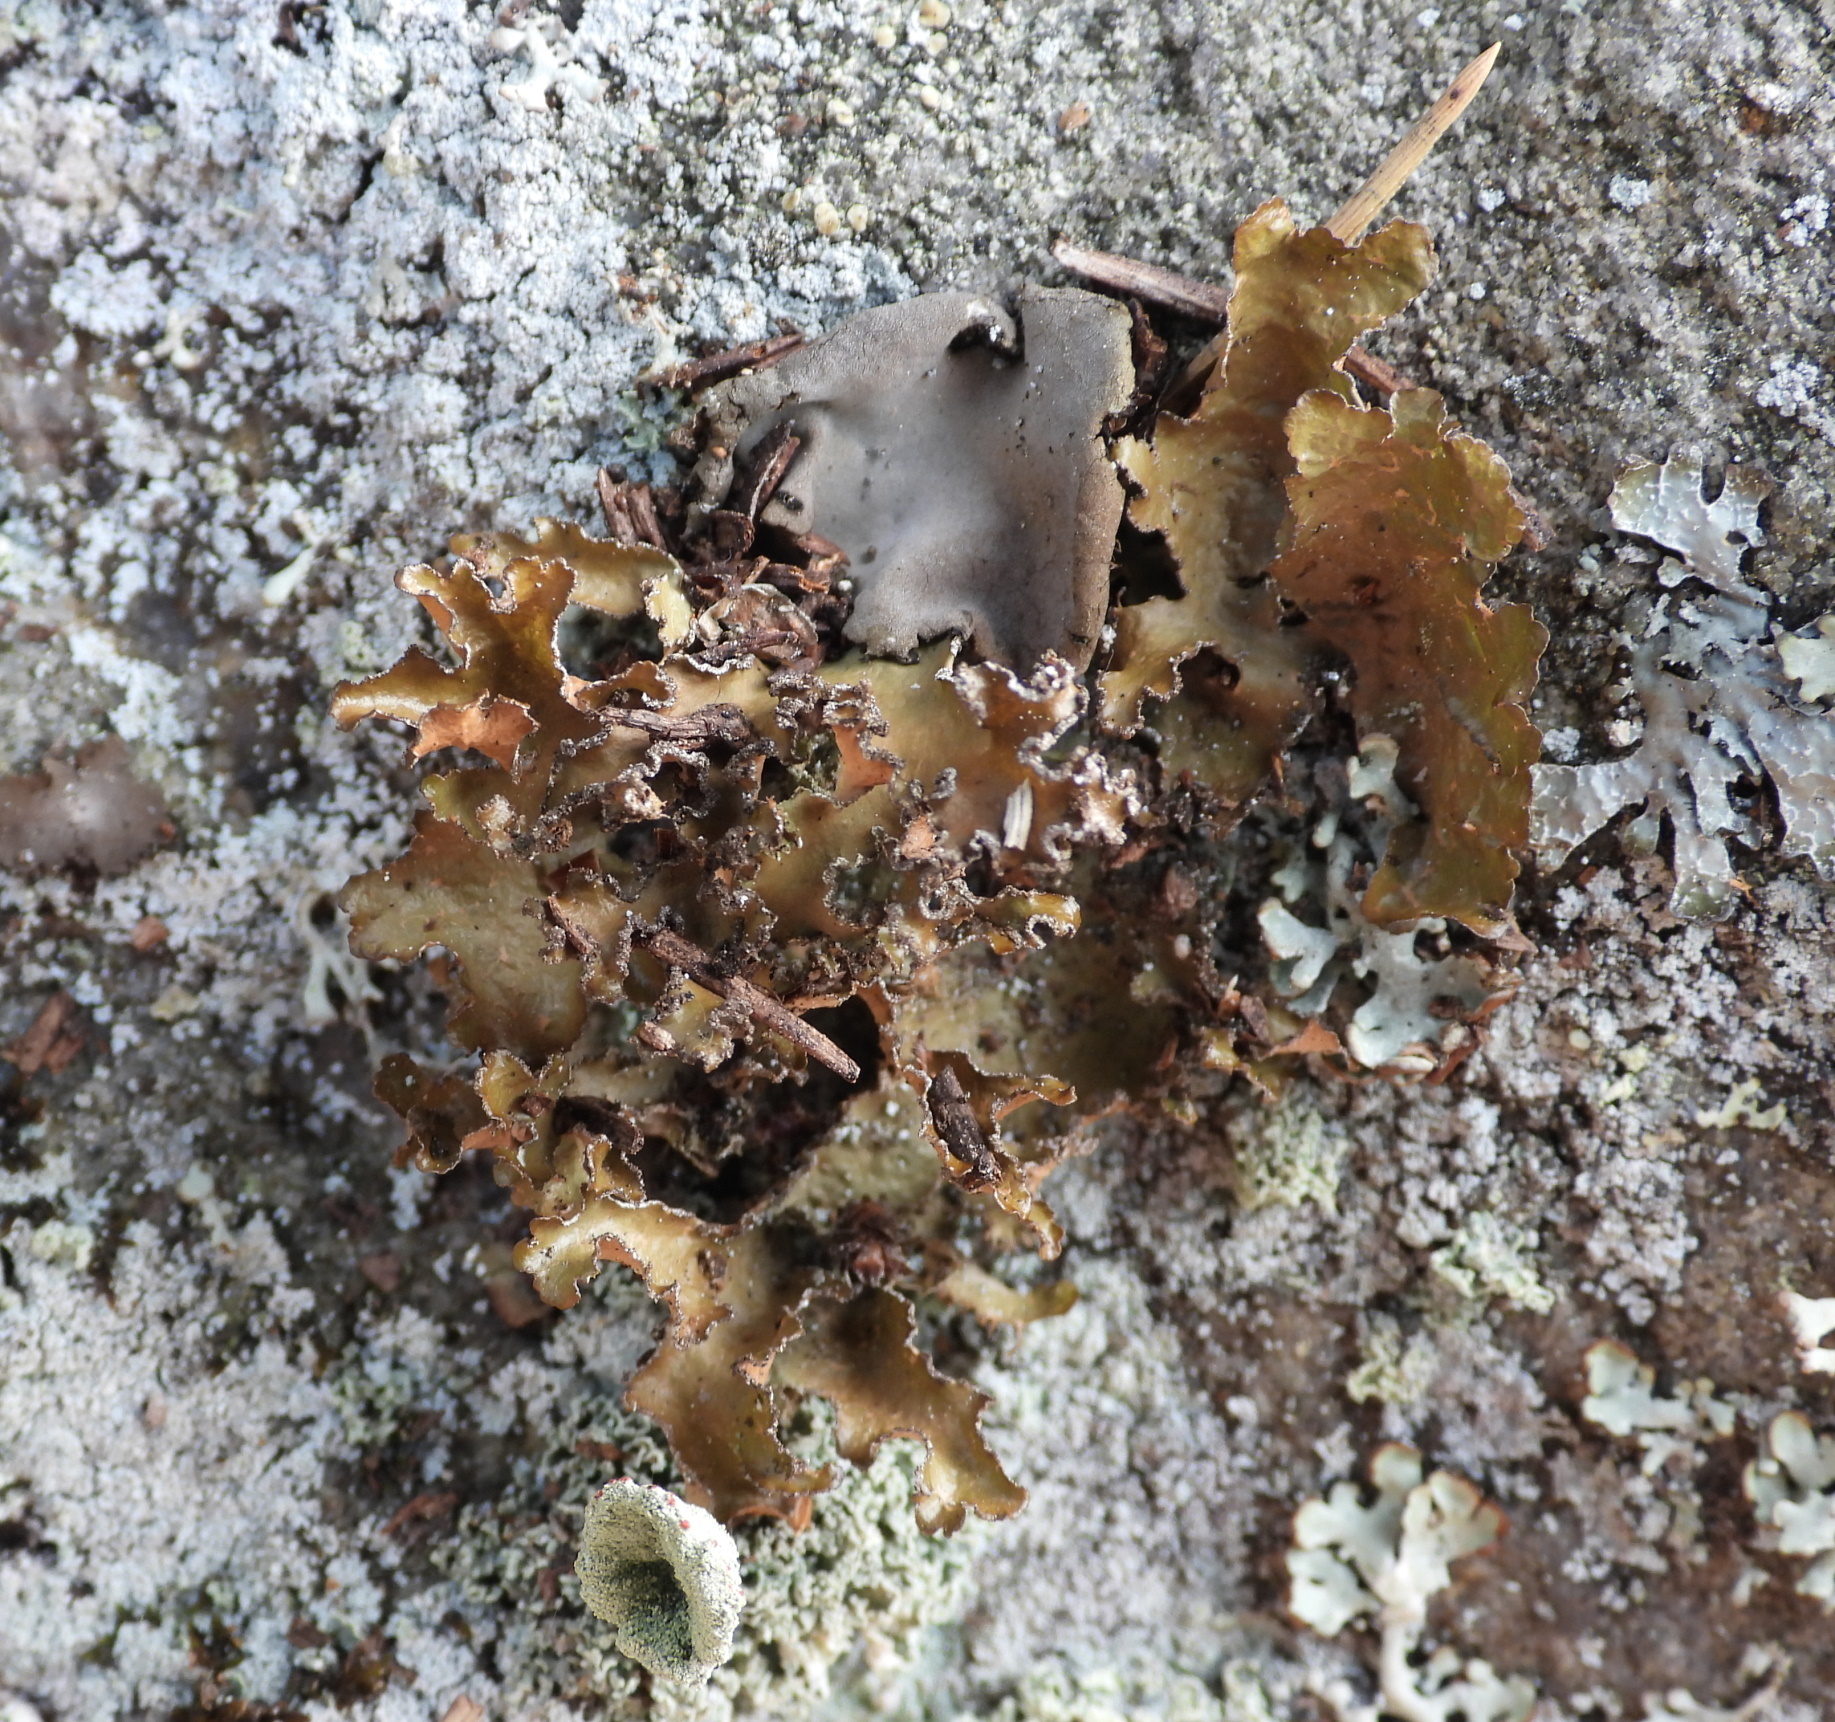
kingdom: Fungi
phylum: Ascomycota
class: Lecanoromycetes
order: Lecanorales
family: Parmeliaceae
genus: Nephromopsis
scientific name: Nephromopsis chlorophylla
